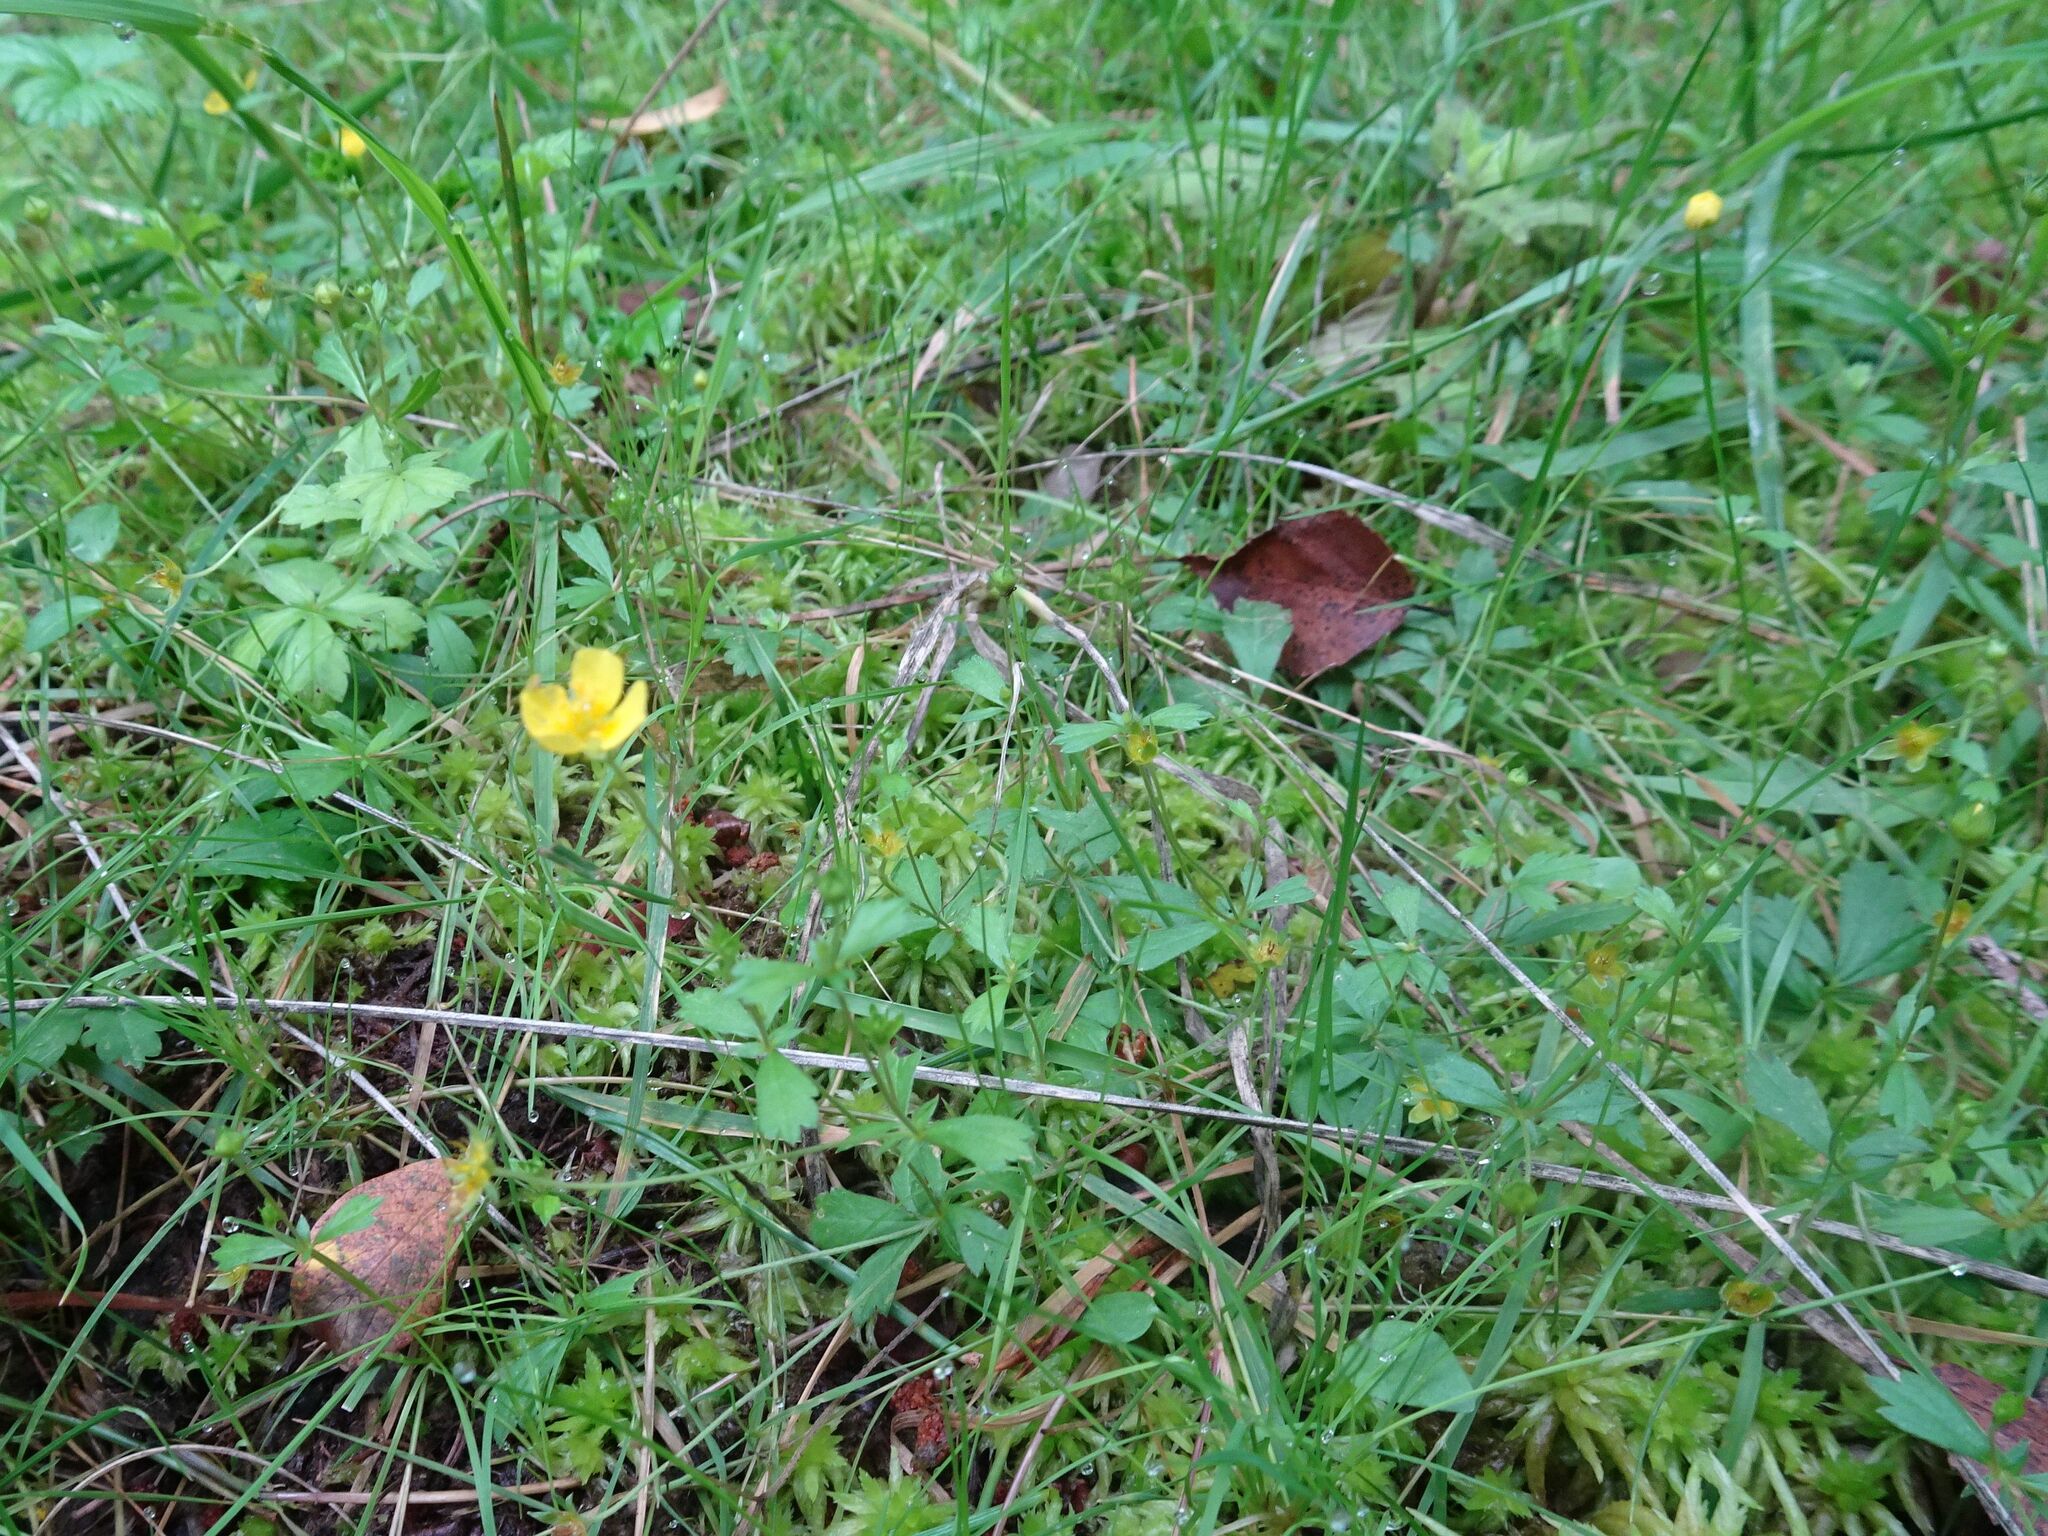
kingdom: Plantae
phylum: Tracheophyta
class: Magnoliopsida
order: Rosales
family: Rosaceae
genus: Potentilla
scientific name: Potentilla erecta
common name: Tormentil
